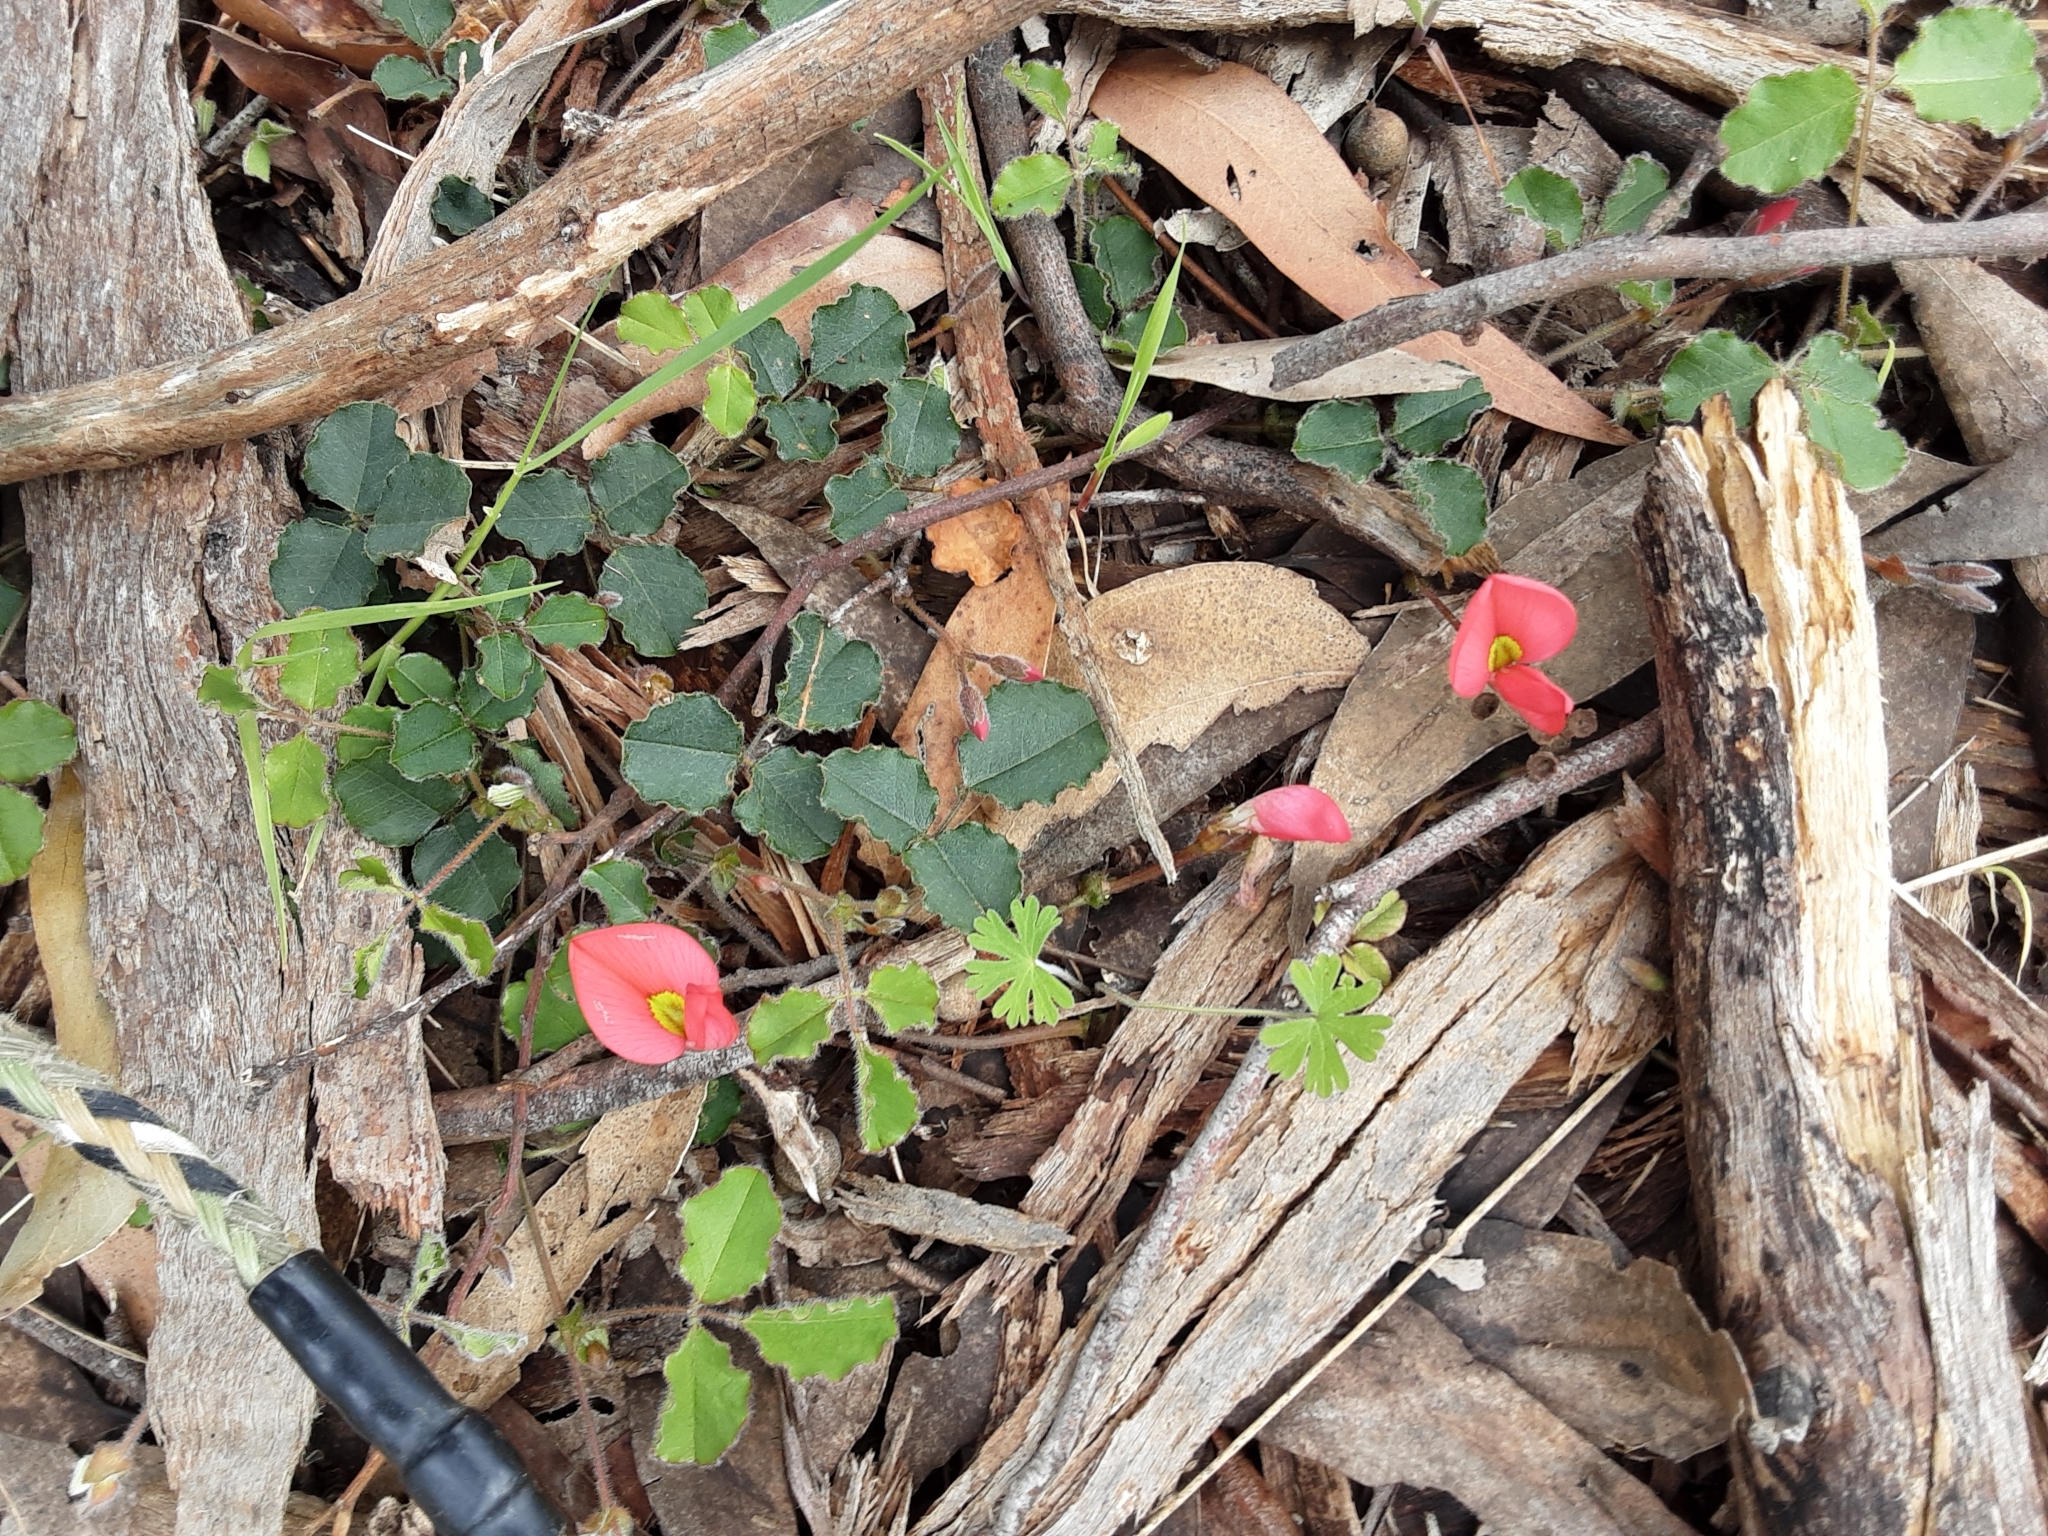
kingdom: Plantae
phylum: Tracheophyta
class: Magnoliopsida
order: Fabales
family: Fabaceae
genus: Kennedia
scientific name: Kennedia prostrata
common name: Running-postman
